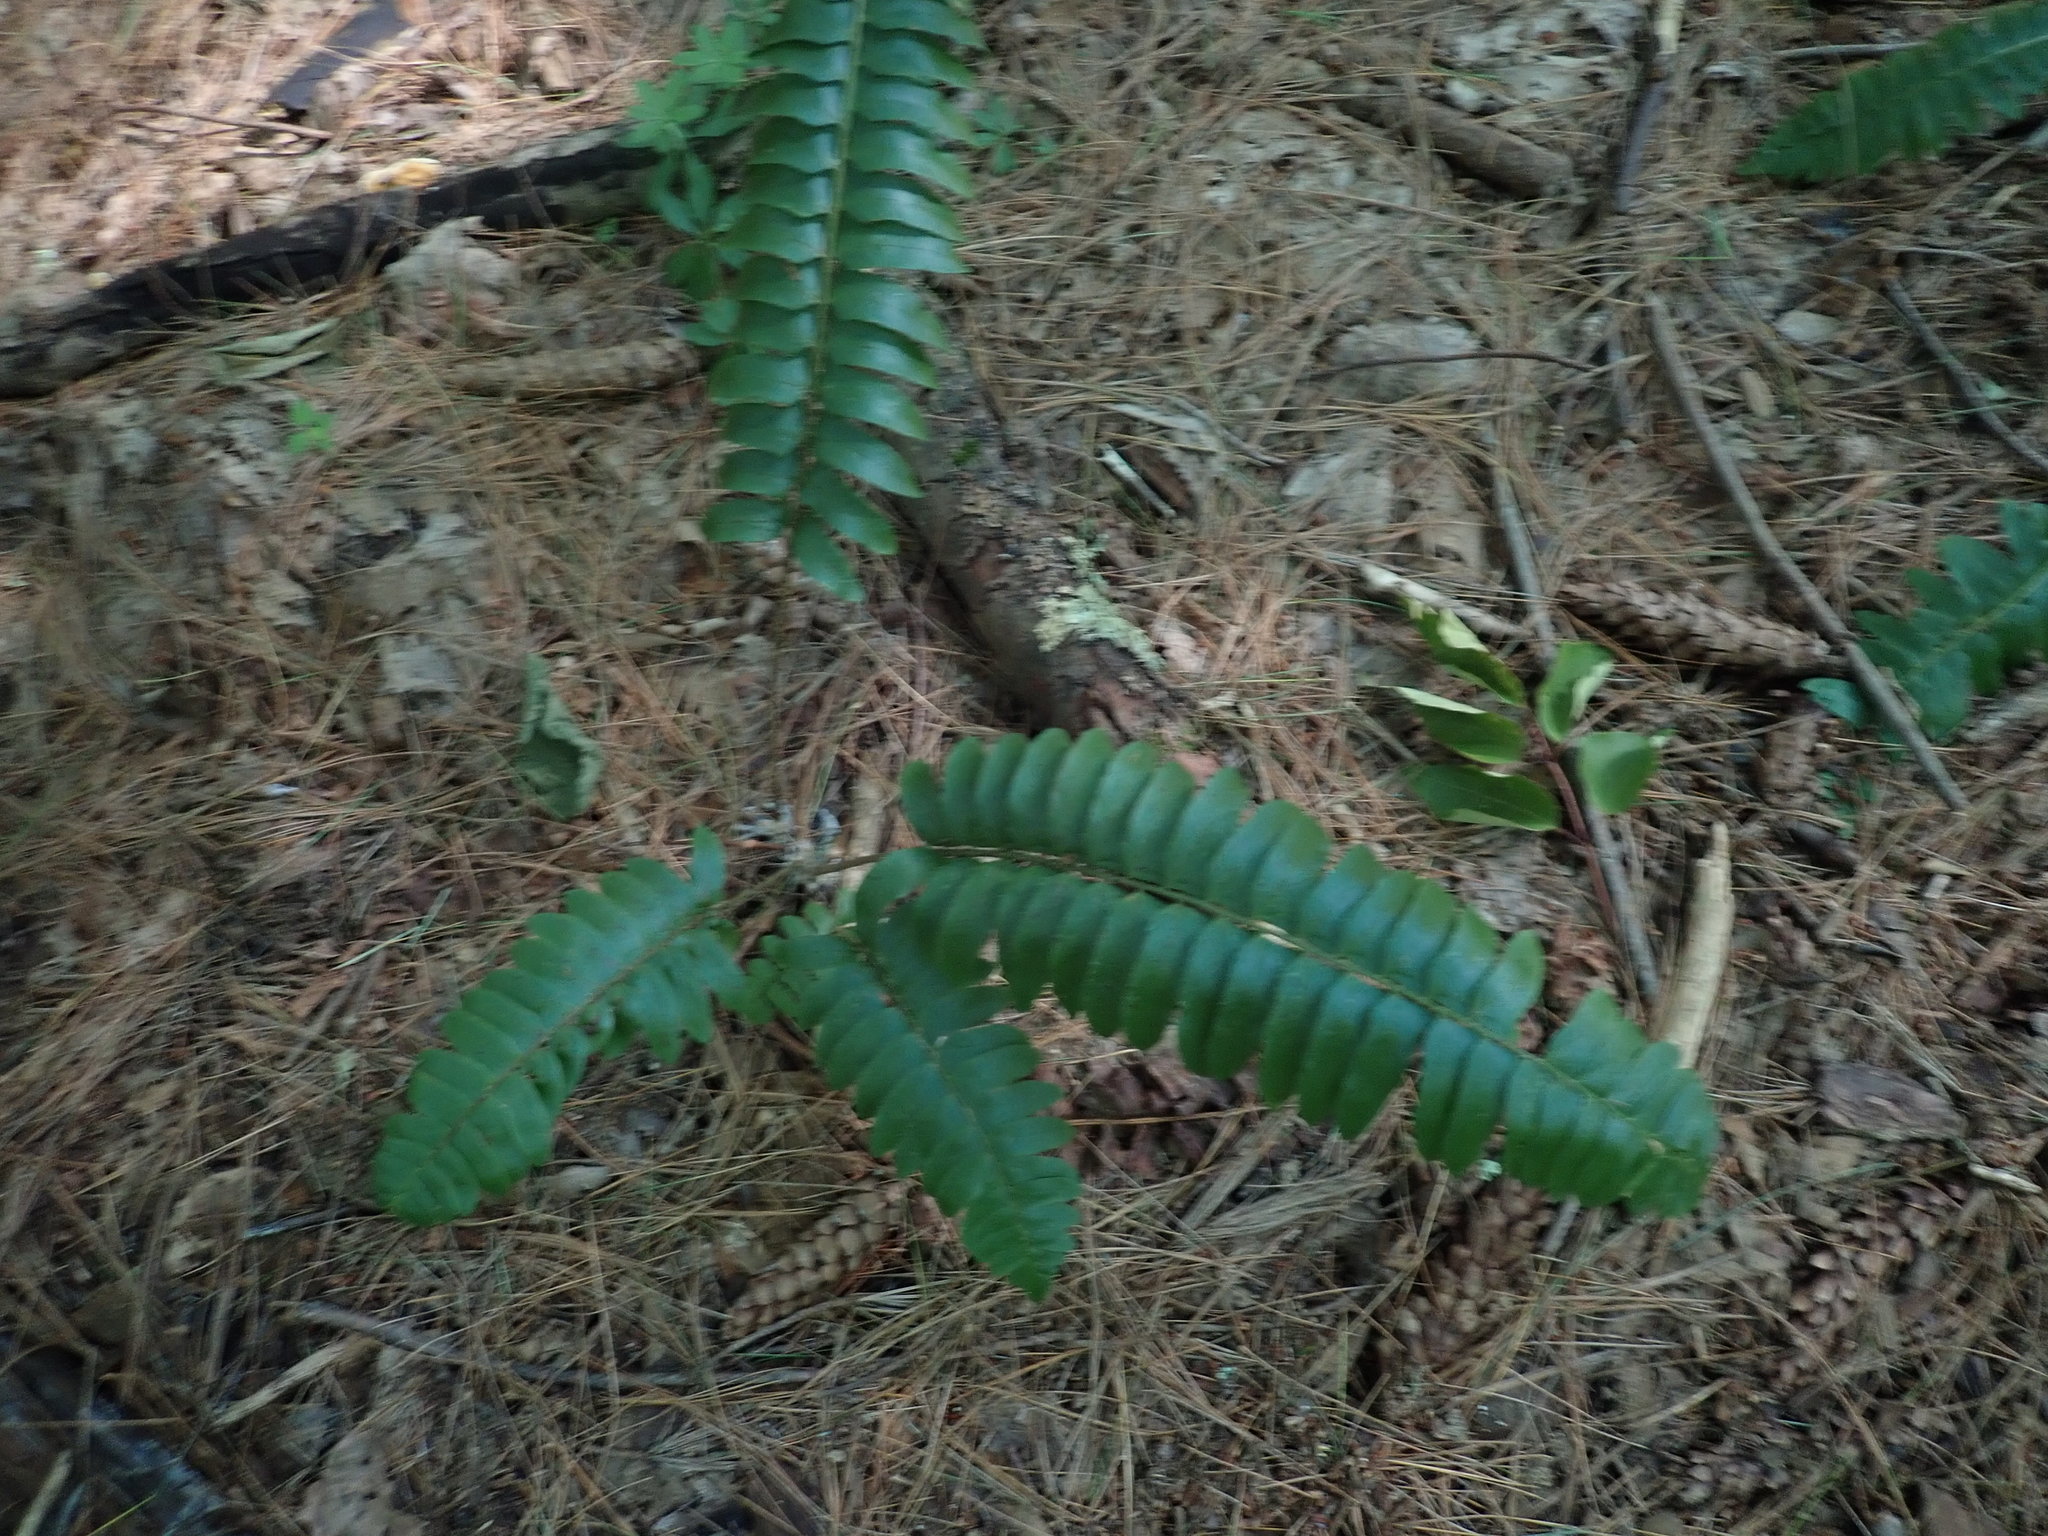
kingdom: Plantae
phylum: Tracheophyta
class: Polypodiopsida
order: Polypodiales
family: Dryopteridaceae
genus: Polystichum
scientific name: Polystichum acrostichoides
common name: Christmas fern
